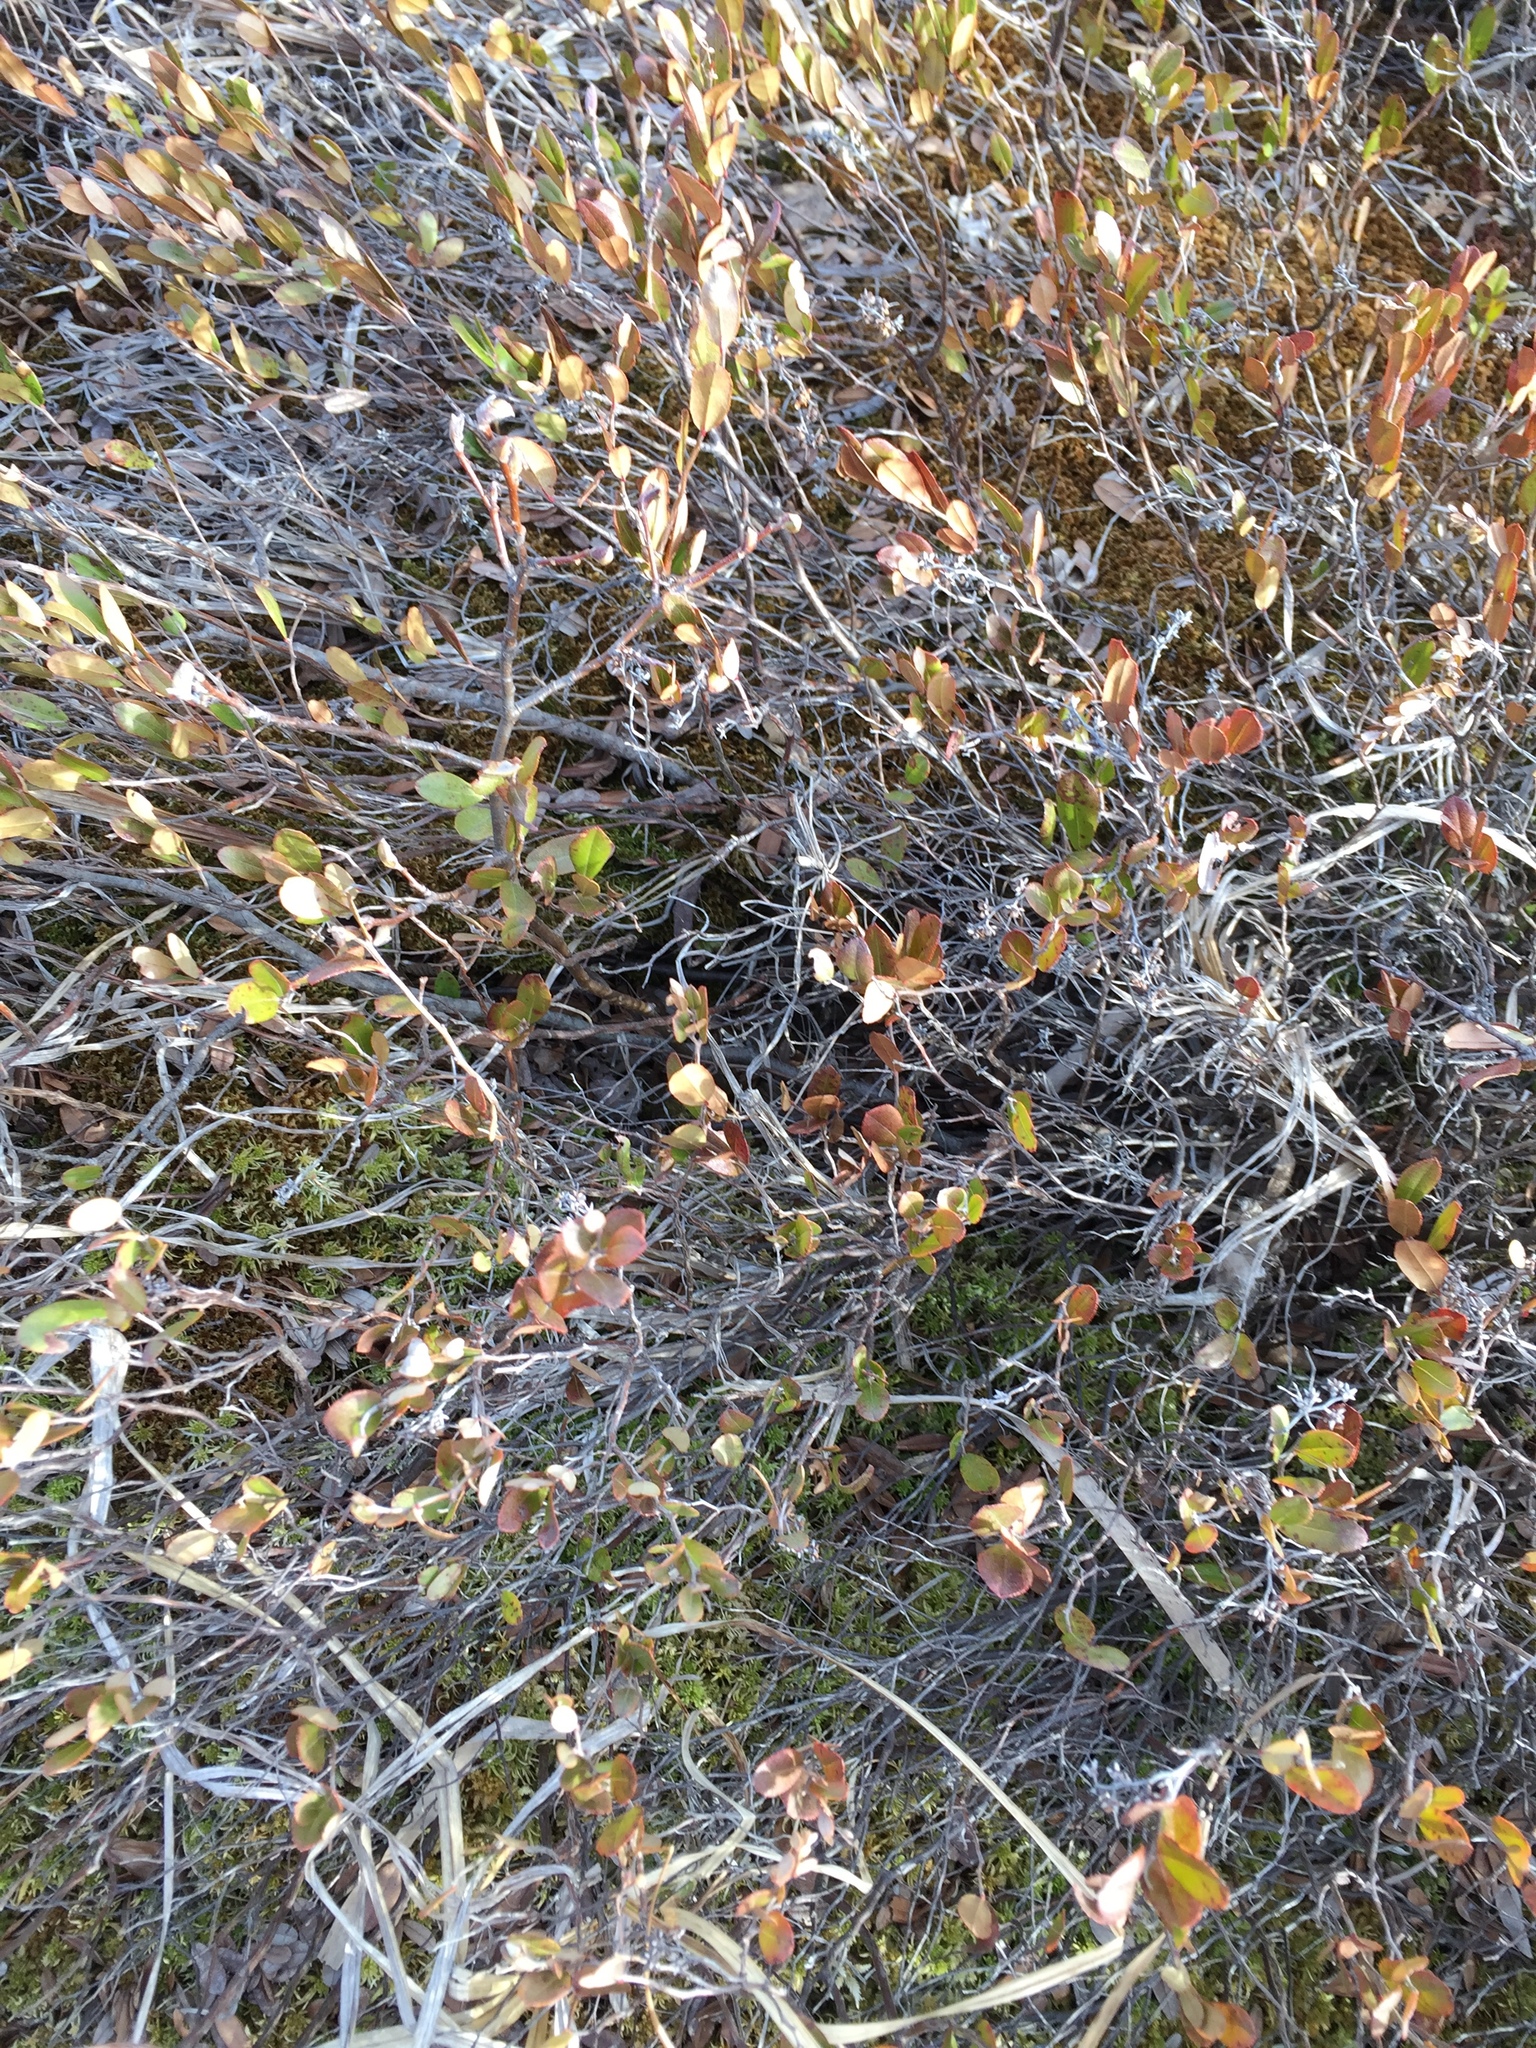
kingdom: Plantae
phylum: Tracheophyta
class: Magnoliopsida
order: Ericales
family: Ericaceae
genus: Chamaedaphne
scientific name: Chamaedaphne calyculata
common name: Leatherleaf
